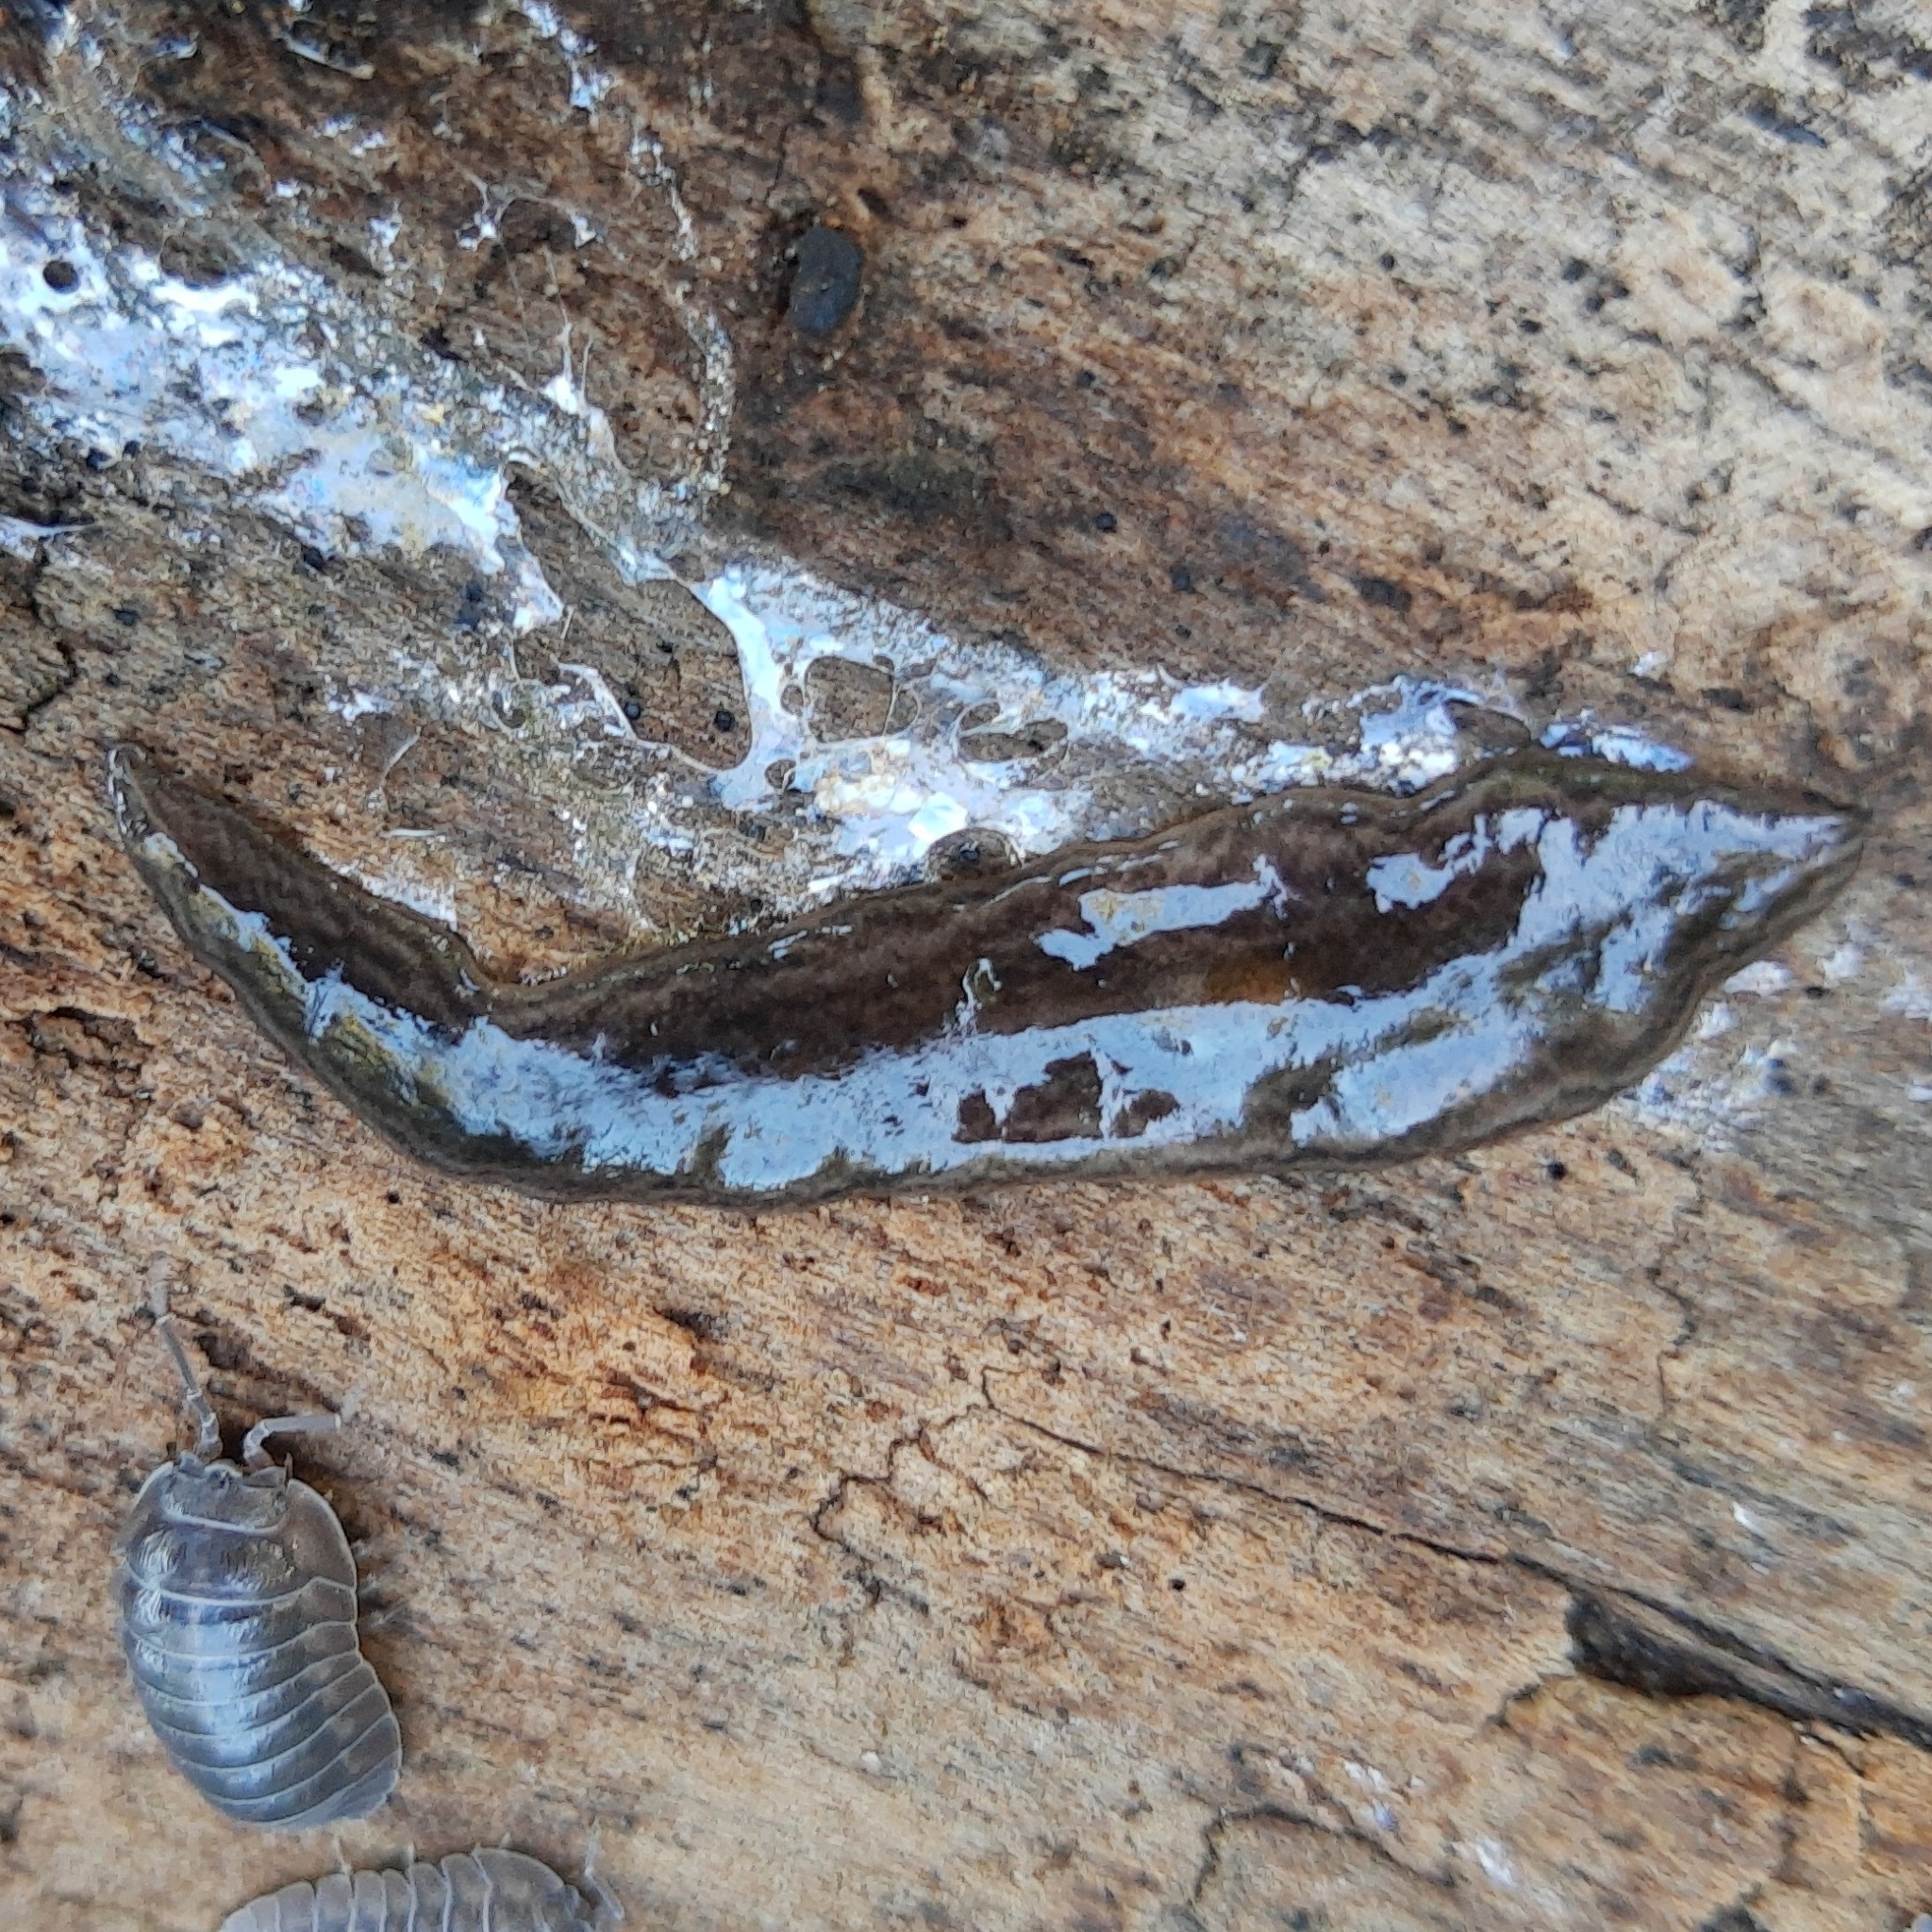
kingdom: Animalia
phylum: Platyhelminthes
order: Tricladida
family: Geoplanidae
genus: Obama
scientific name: Obama nungara
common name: Obama flatworm
